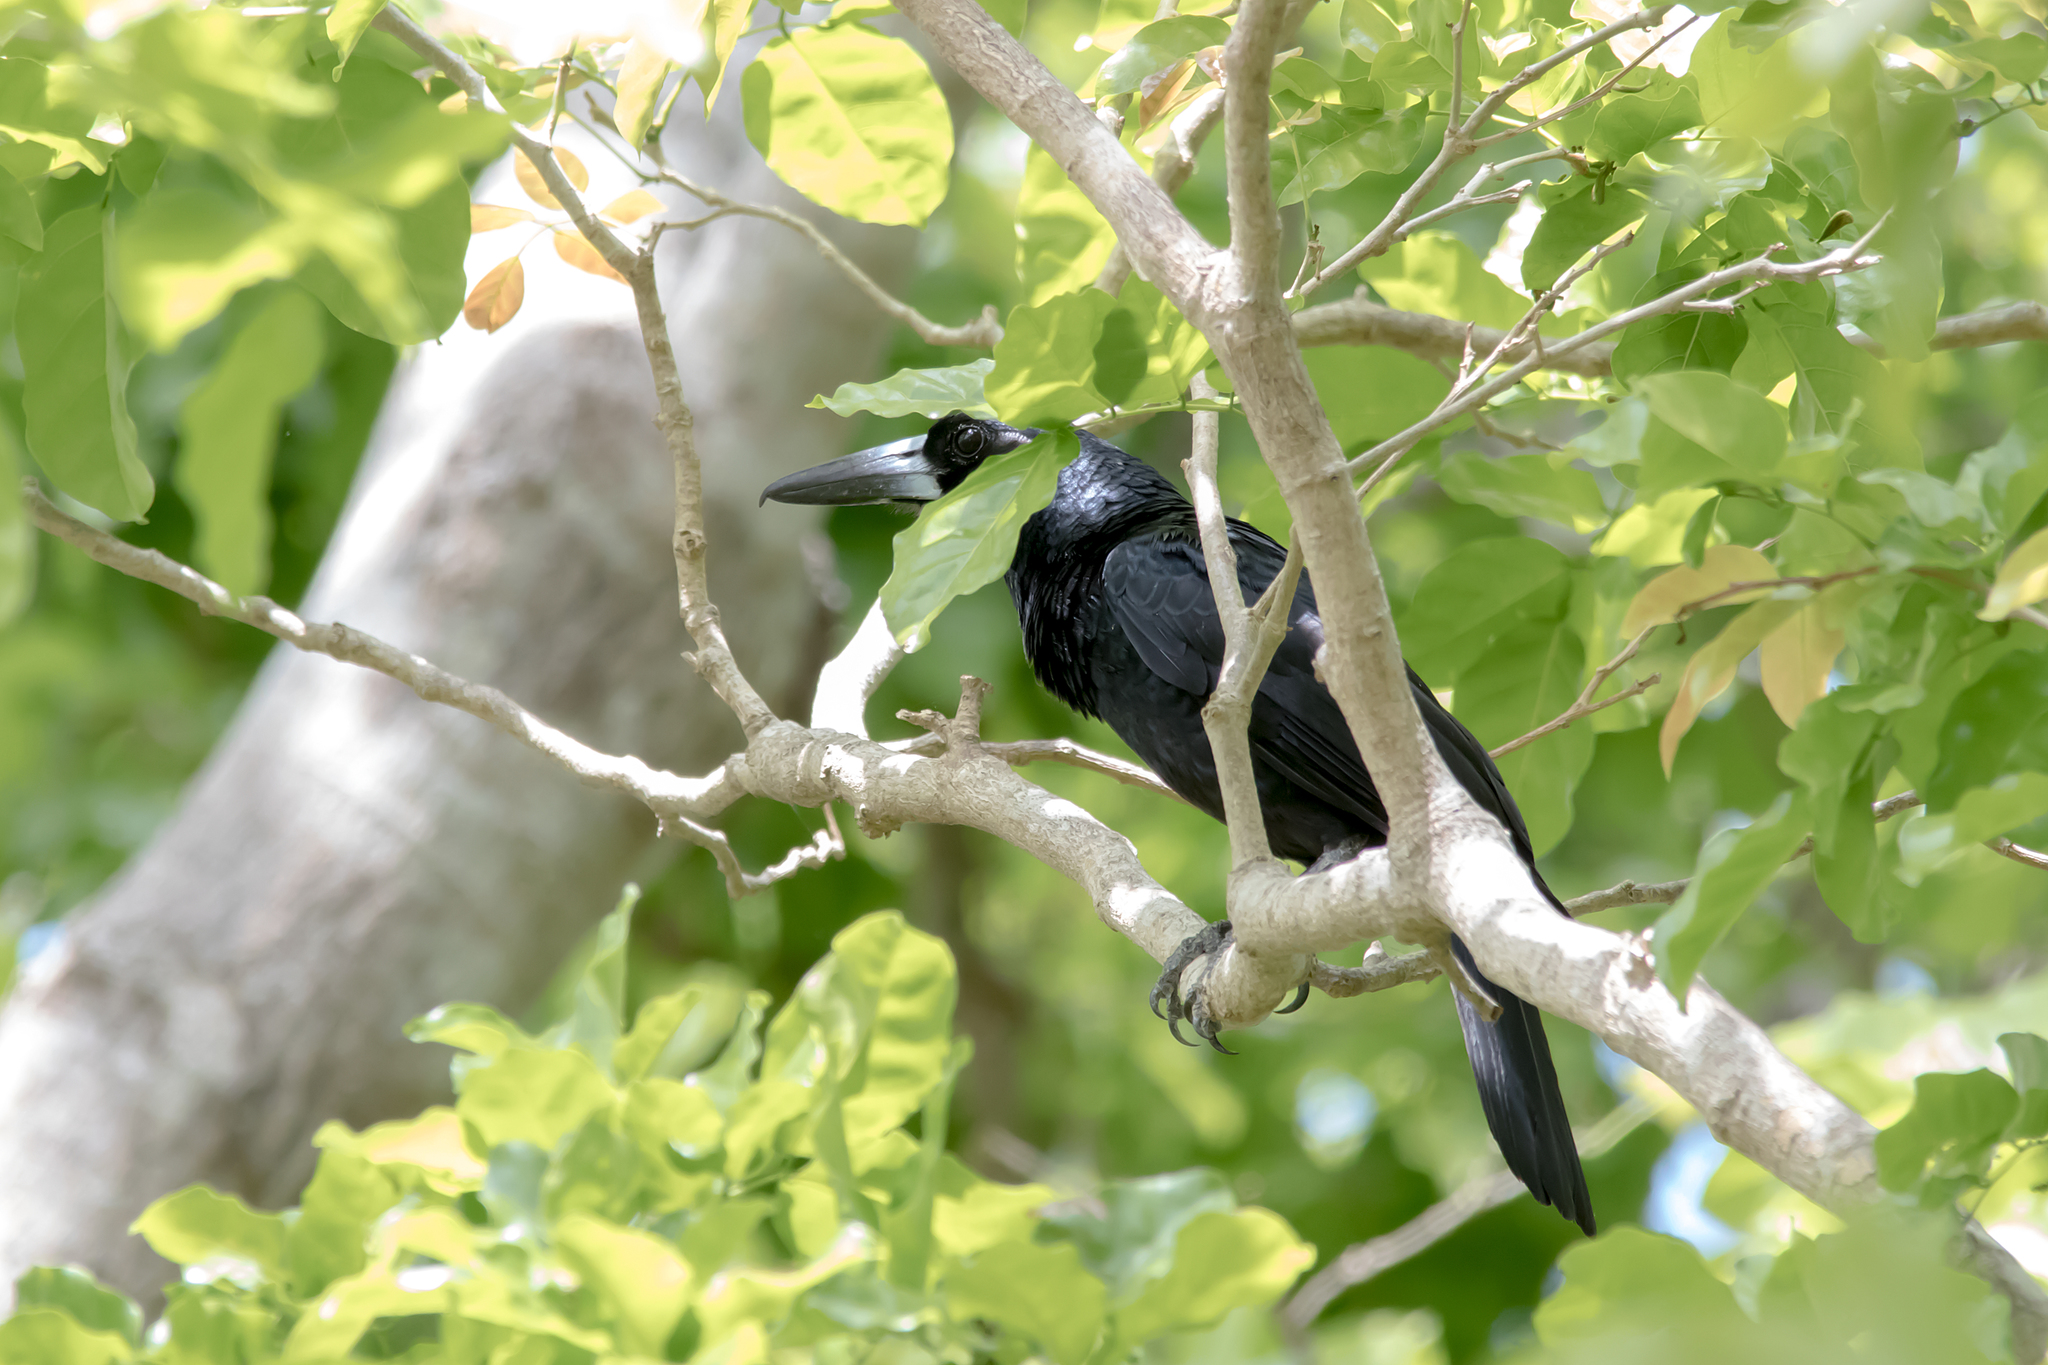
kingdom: Animalia
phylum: Chordata
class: Aves
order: Passeriformes
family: Artamidae
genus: Melloria
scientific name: Melloria quoyi
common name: Black butcherbird
